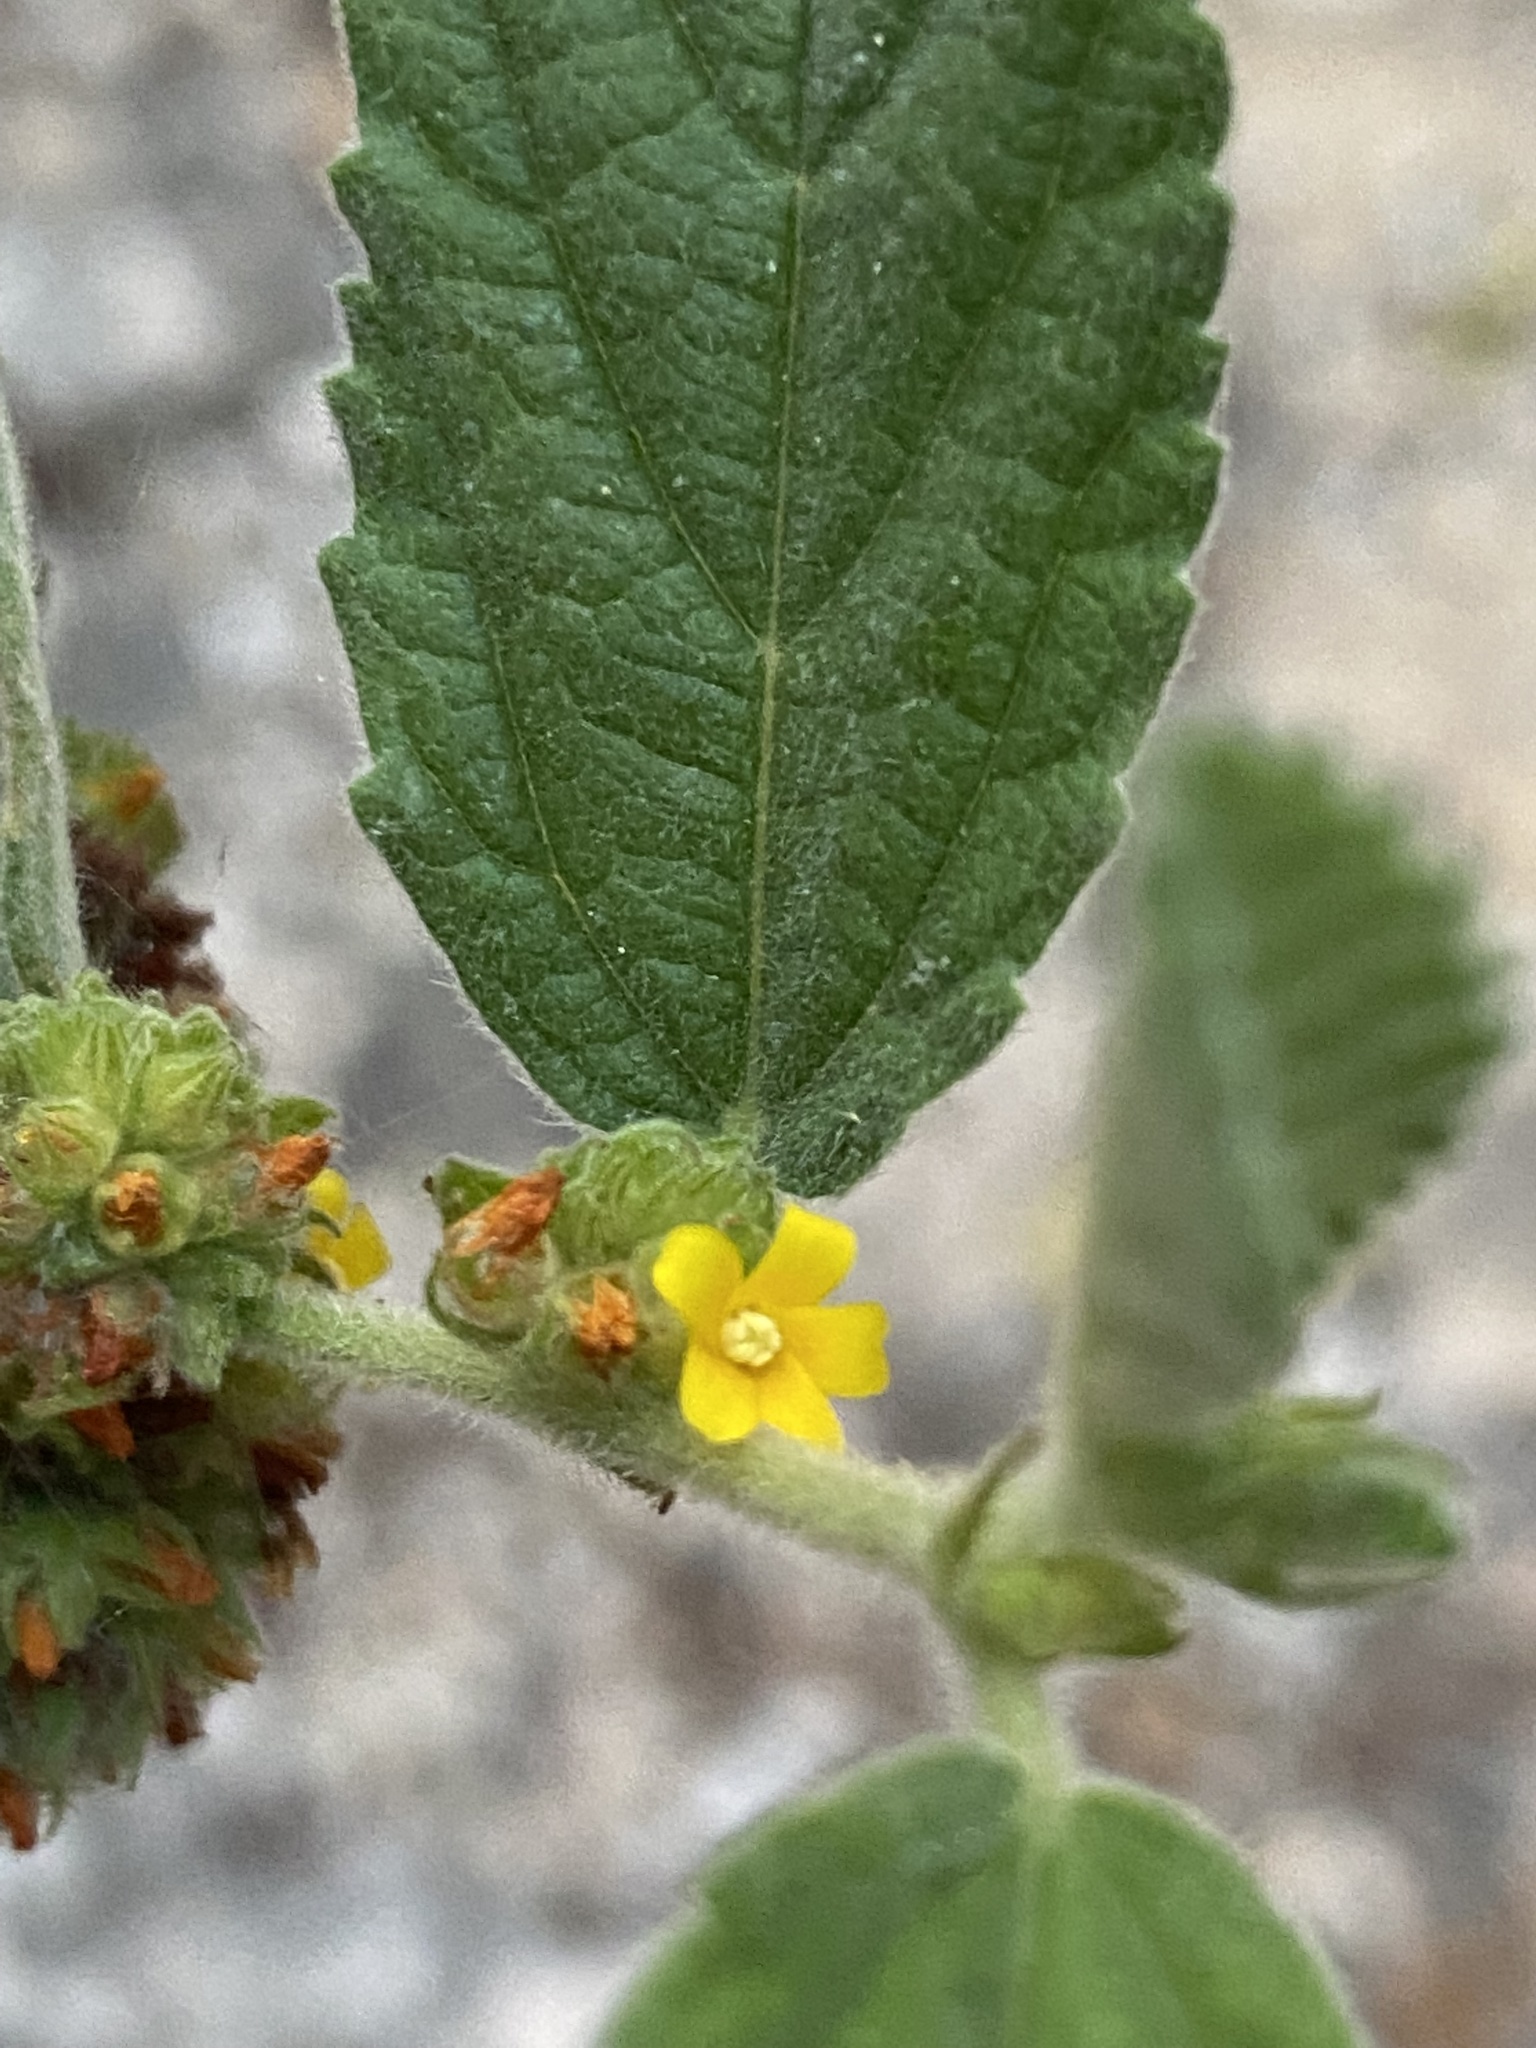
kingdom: Plantae
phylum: Tracheophyta
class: Magnoliopsida
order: Malvales
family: Malvaceae
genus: Waltheria
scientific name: Waltheria indica
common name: Leather-coat
